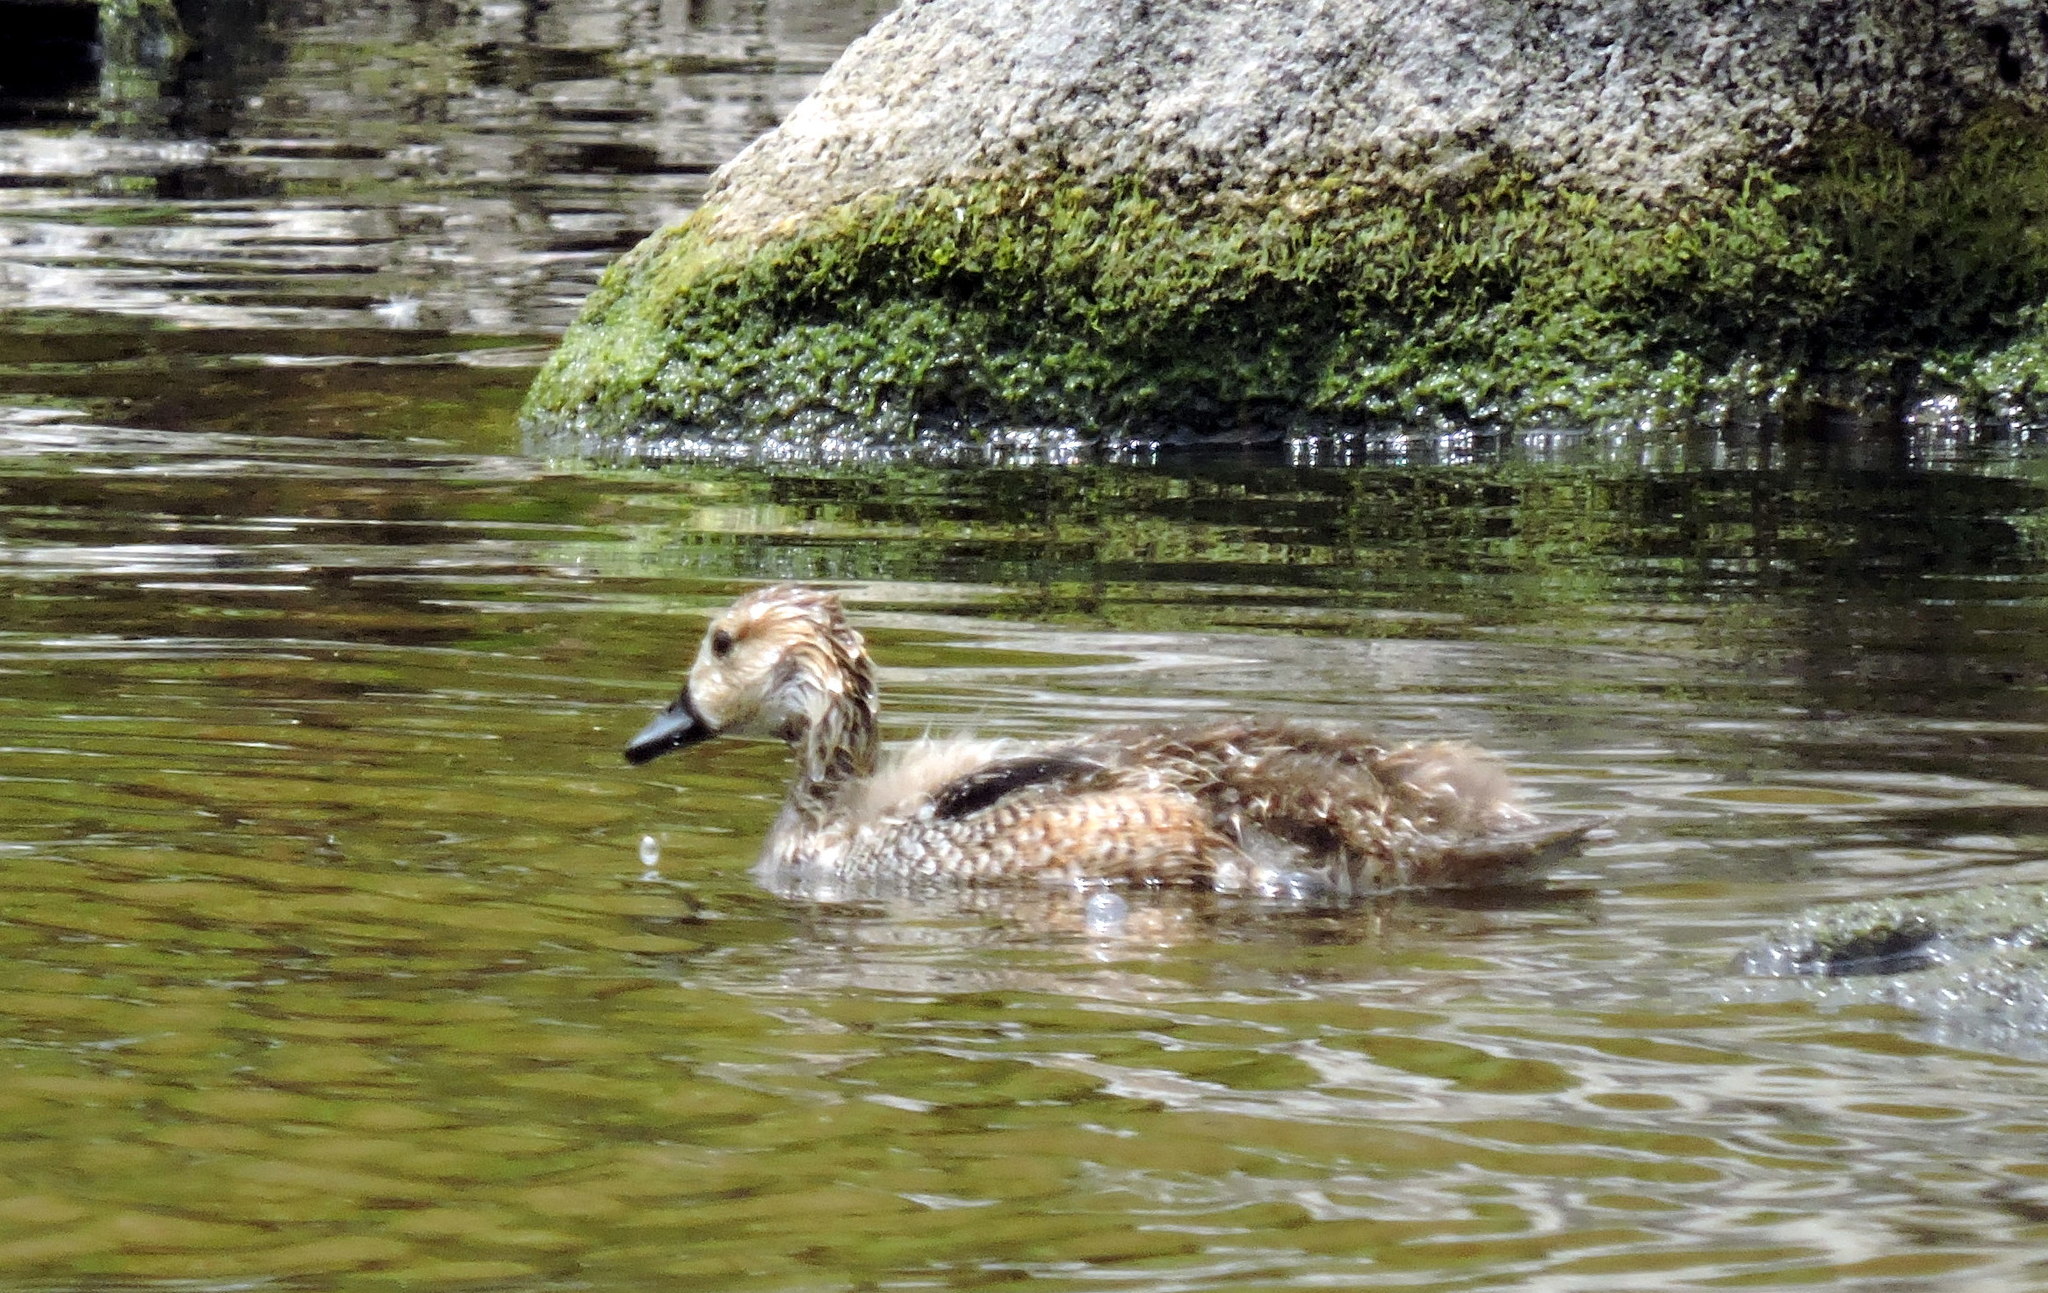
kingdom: Animalia
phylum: Chordata
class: Aves
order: Anseriformes
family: Anatidae
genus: Mareca
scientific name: Mareca sibilatrix
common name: Chiloe wigeon
